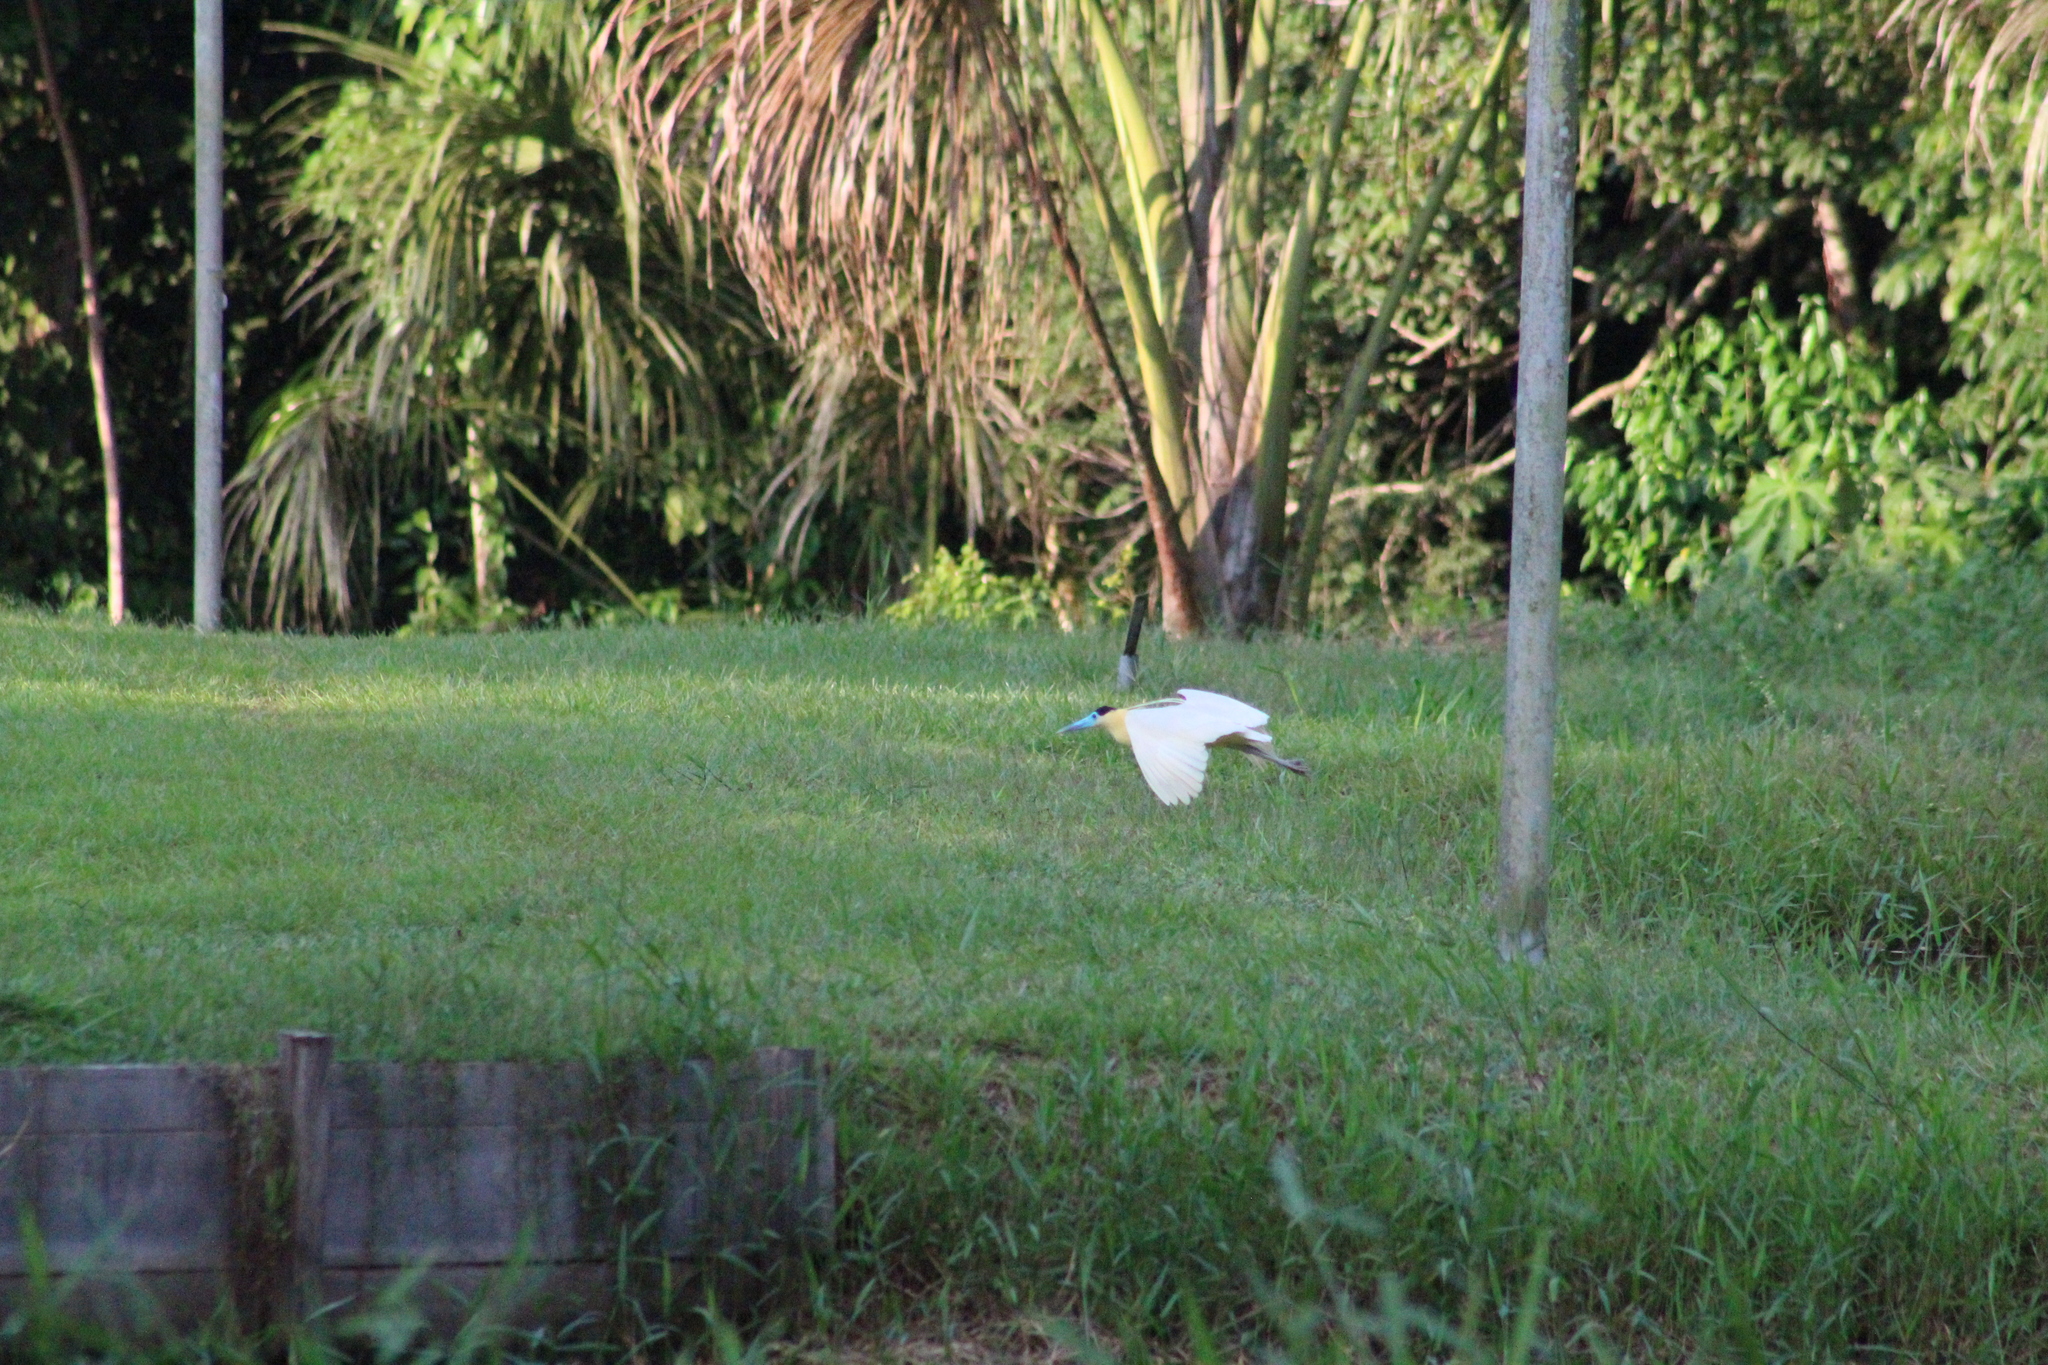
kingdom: Animalia
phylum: Chordata
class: Aves
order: Pelecaniformes
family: Ardeidae
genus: Pilherodius
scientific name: Pilherodius pileatus
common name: Capped heron
